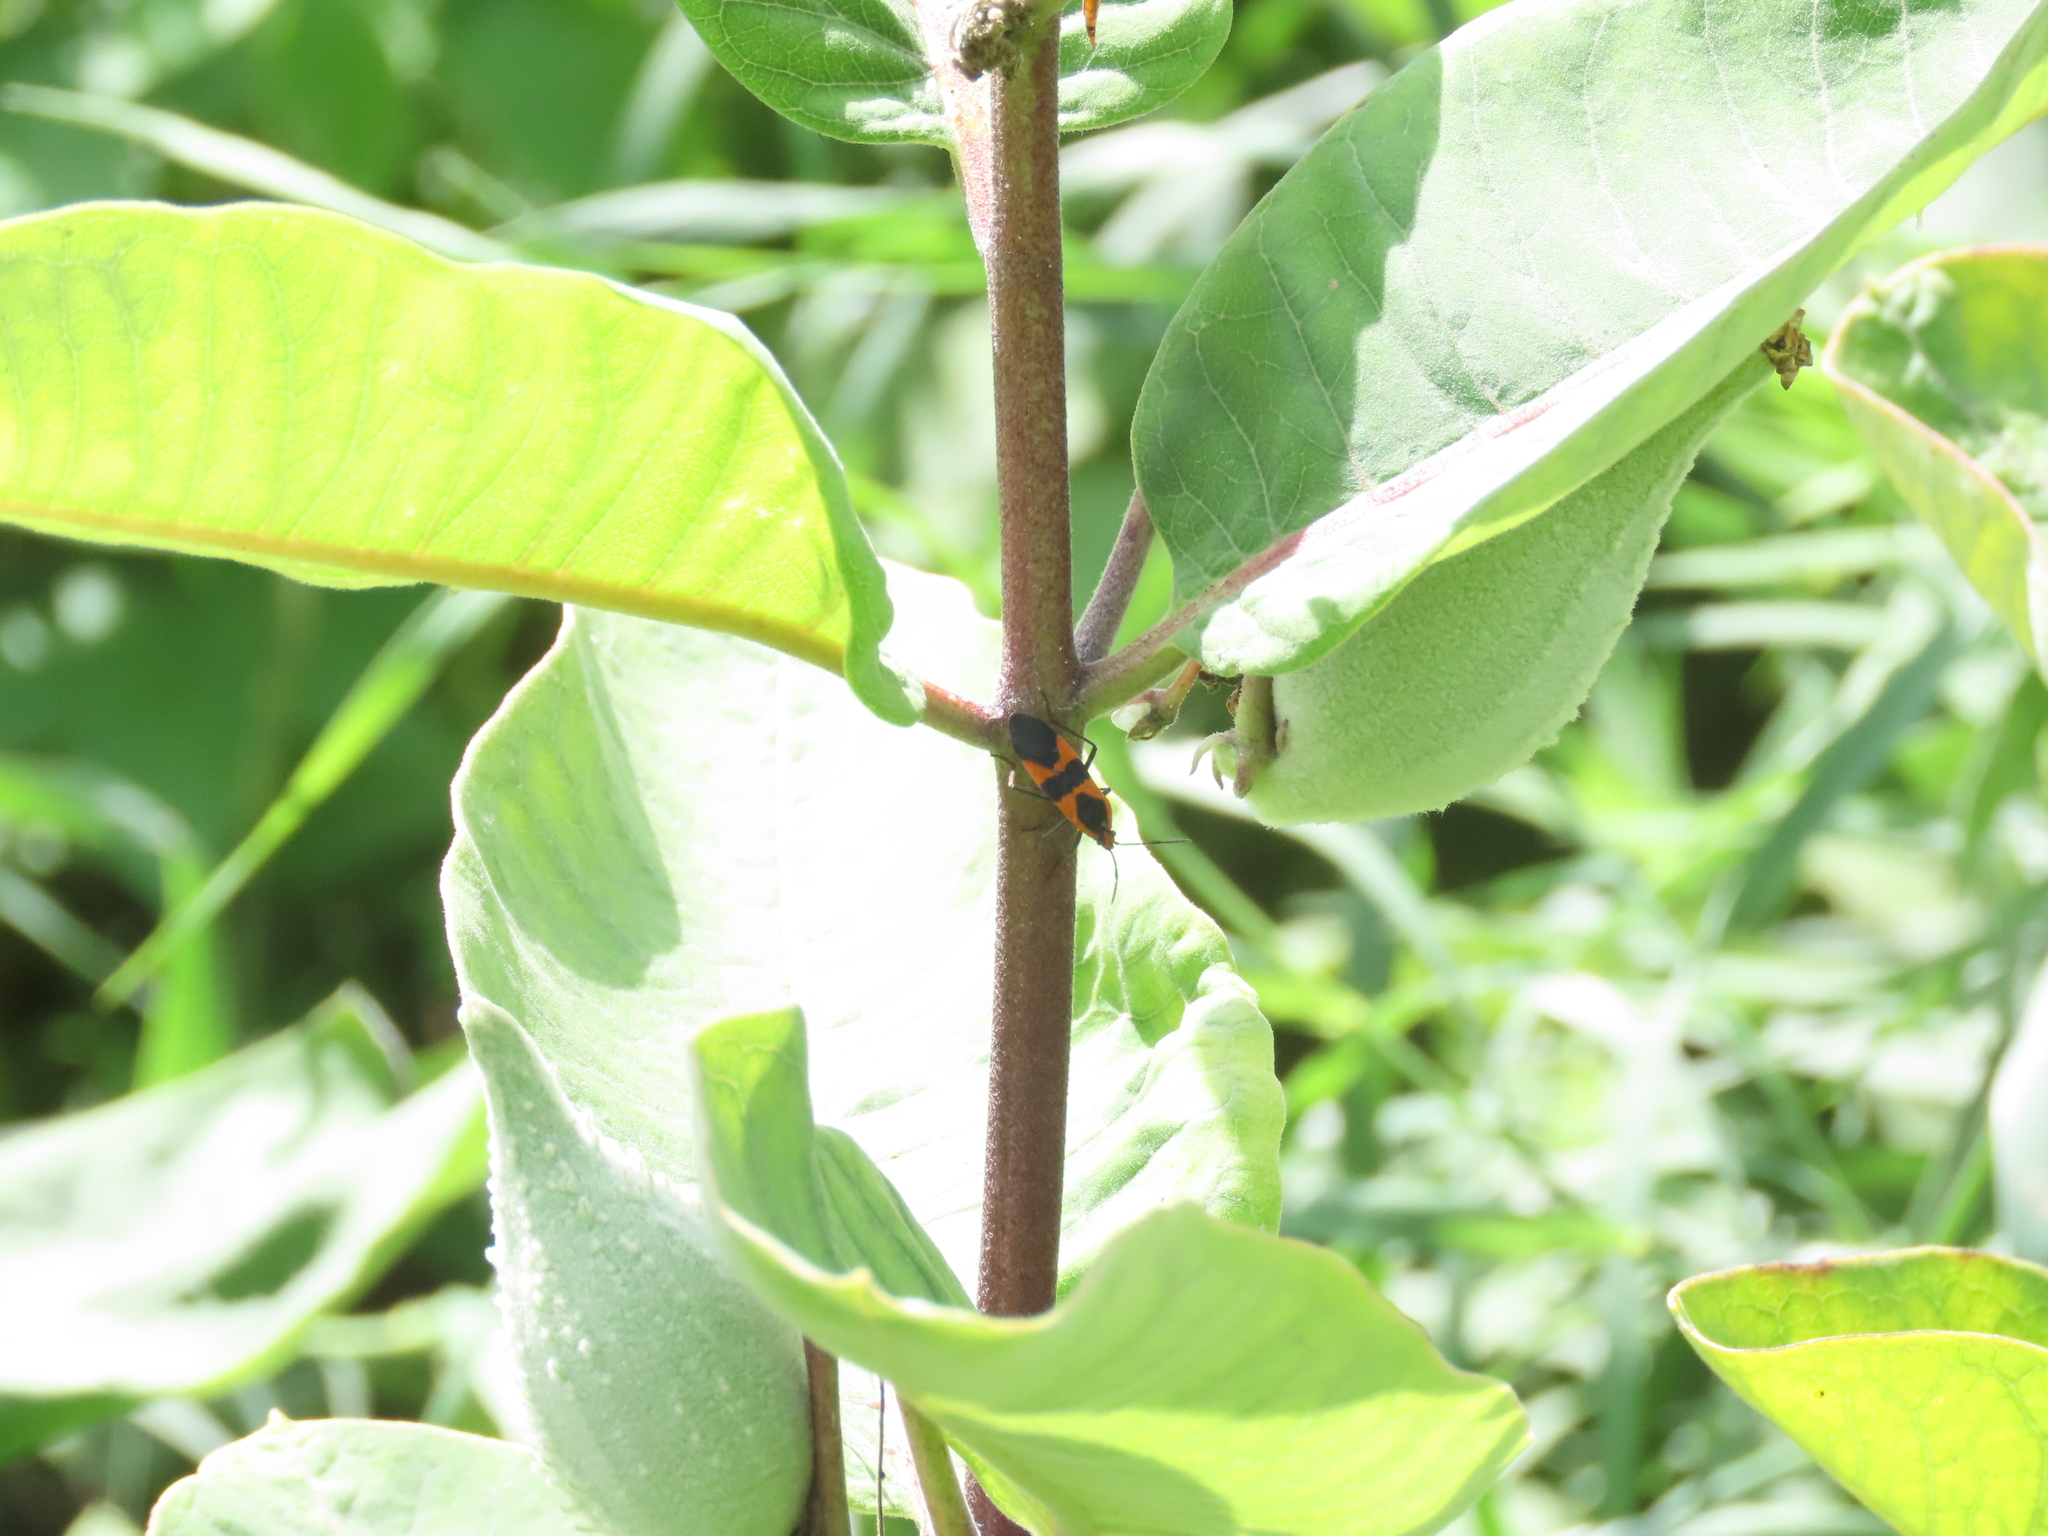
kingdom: Animalia
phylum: Arthropoda
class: Insecta
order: Hemiptera
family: Lygaeidae
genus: Oncopeltus
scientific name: Oncopeltus fasciatus
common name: Large milkweed bug
